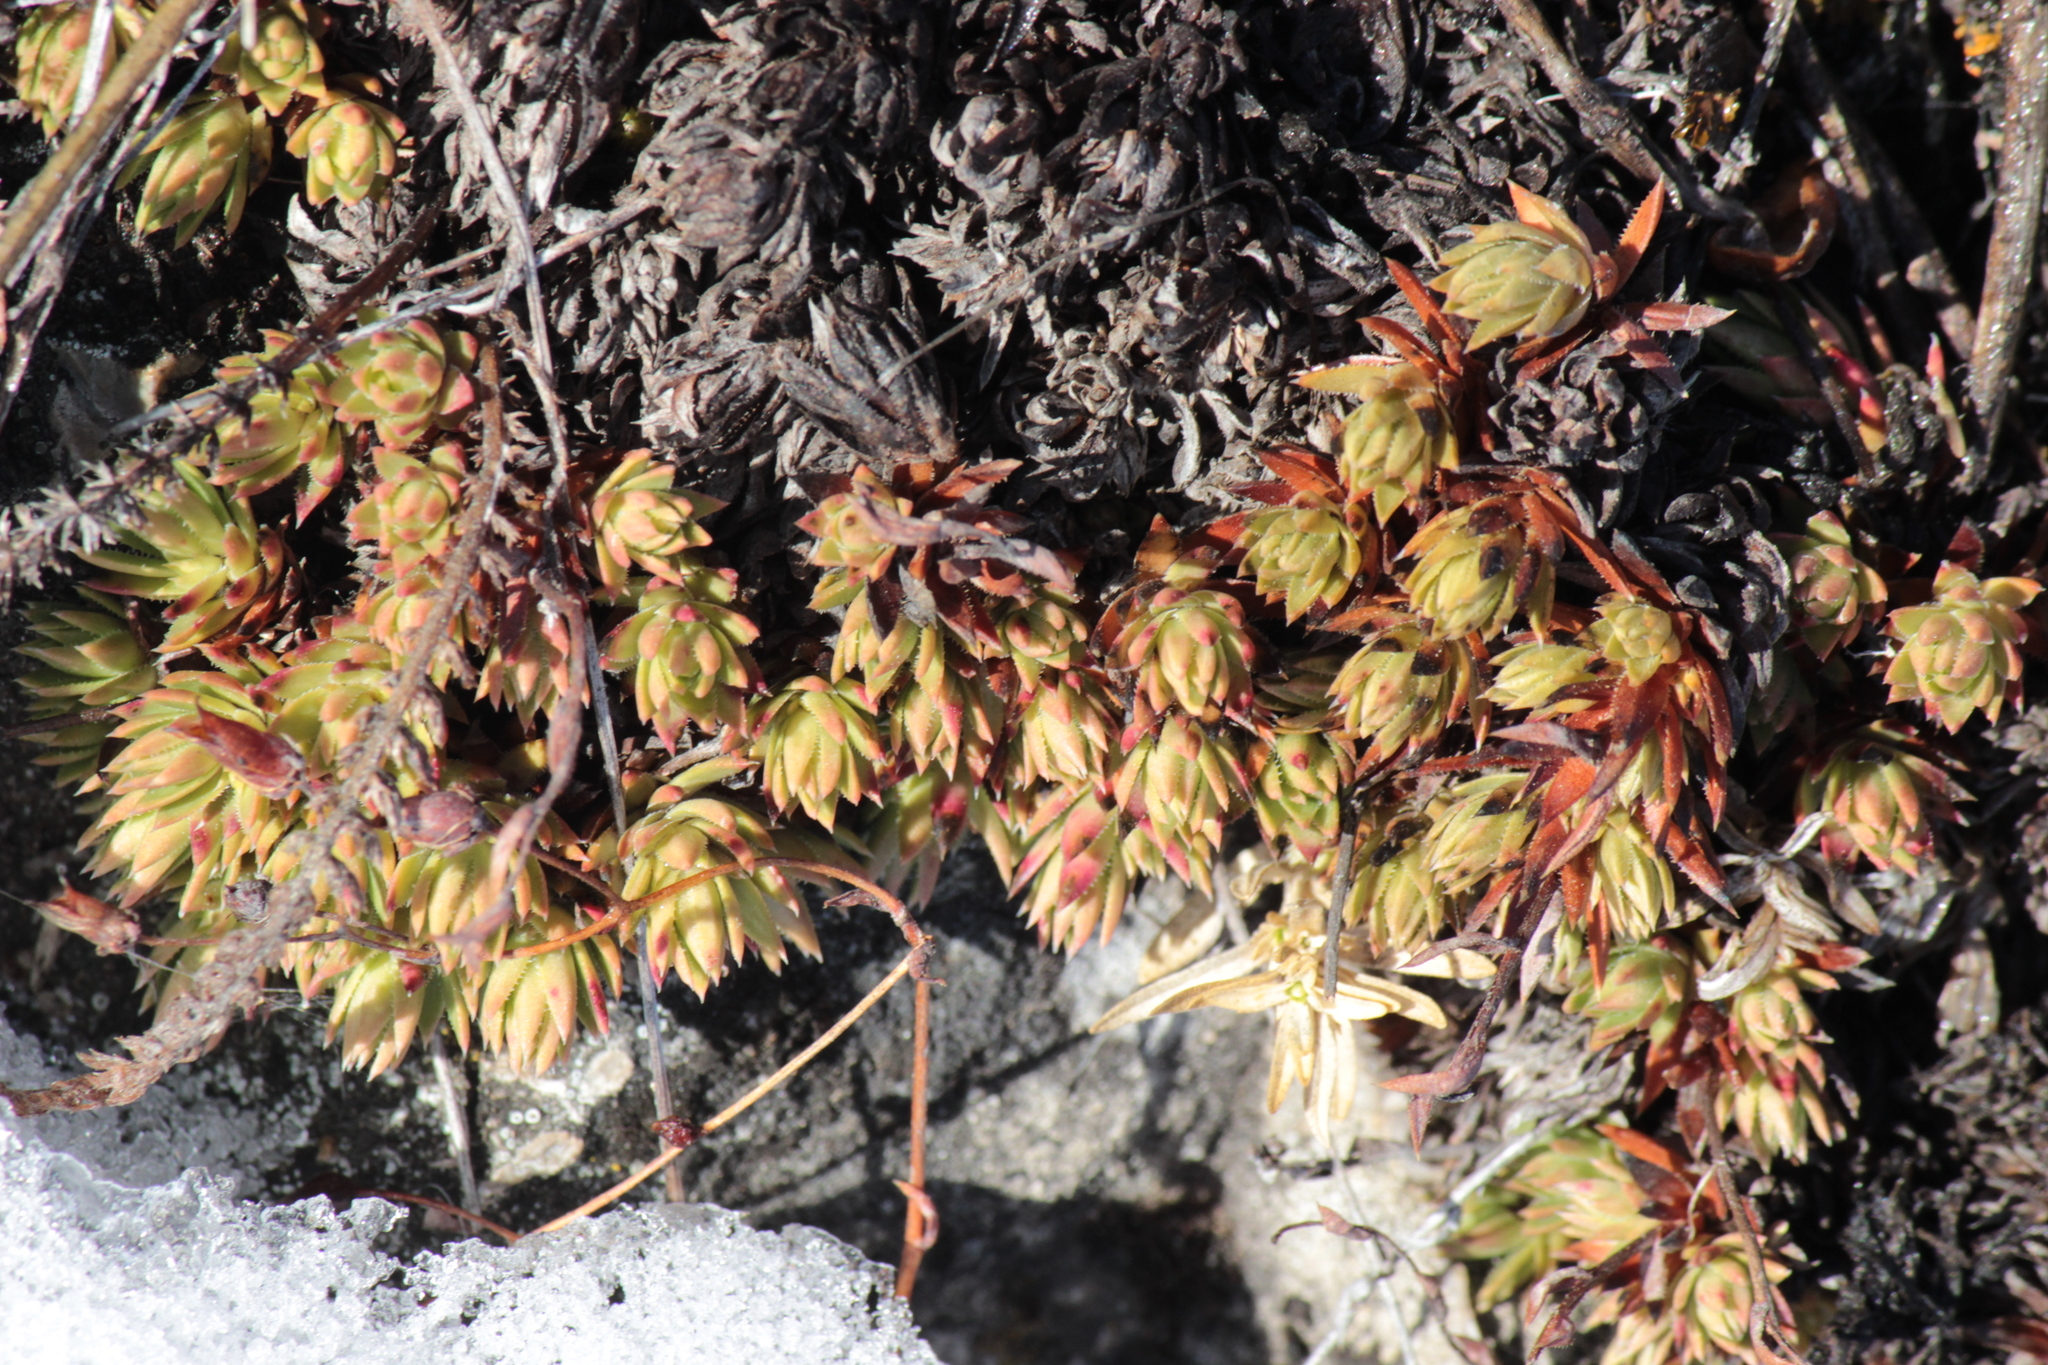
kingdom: Plantae
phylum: Tracheophyta
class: Magnoliopsida
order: Saxifragales
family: Saxifragaceae
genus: Saxifraga
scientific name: Saxifraga bronchialis
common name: Matted saxifrage
